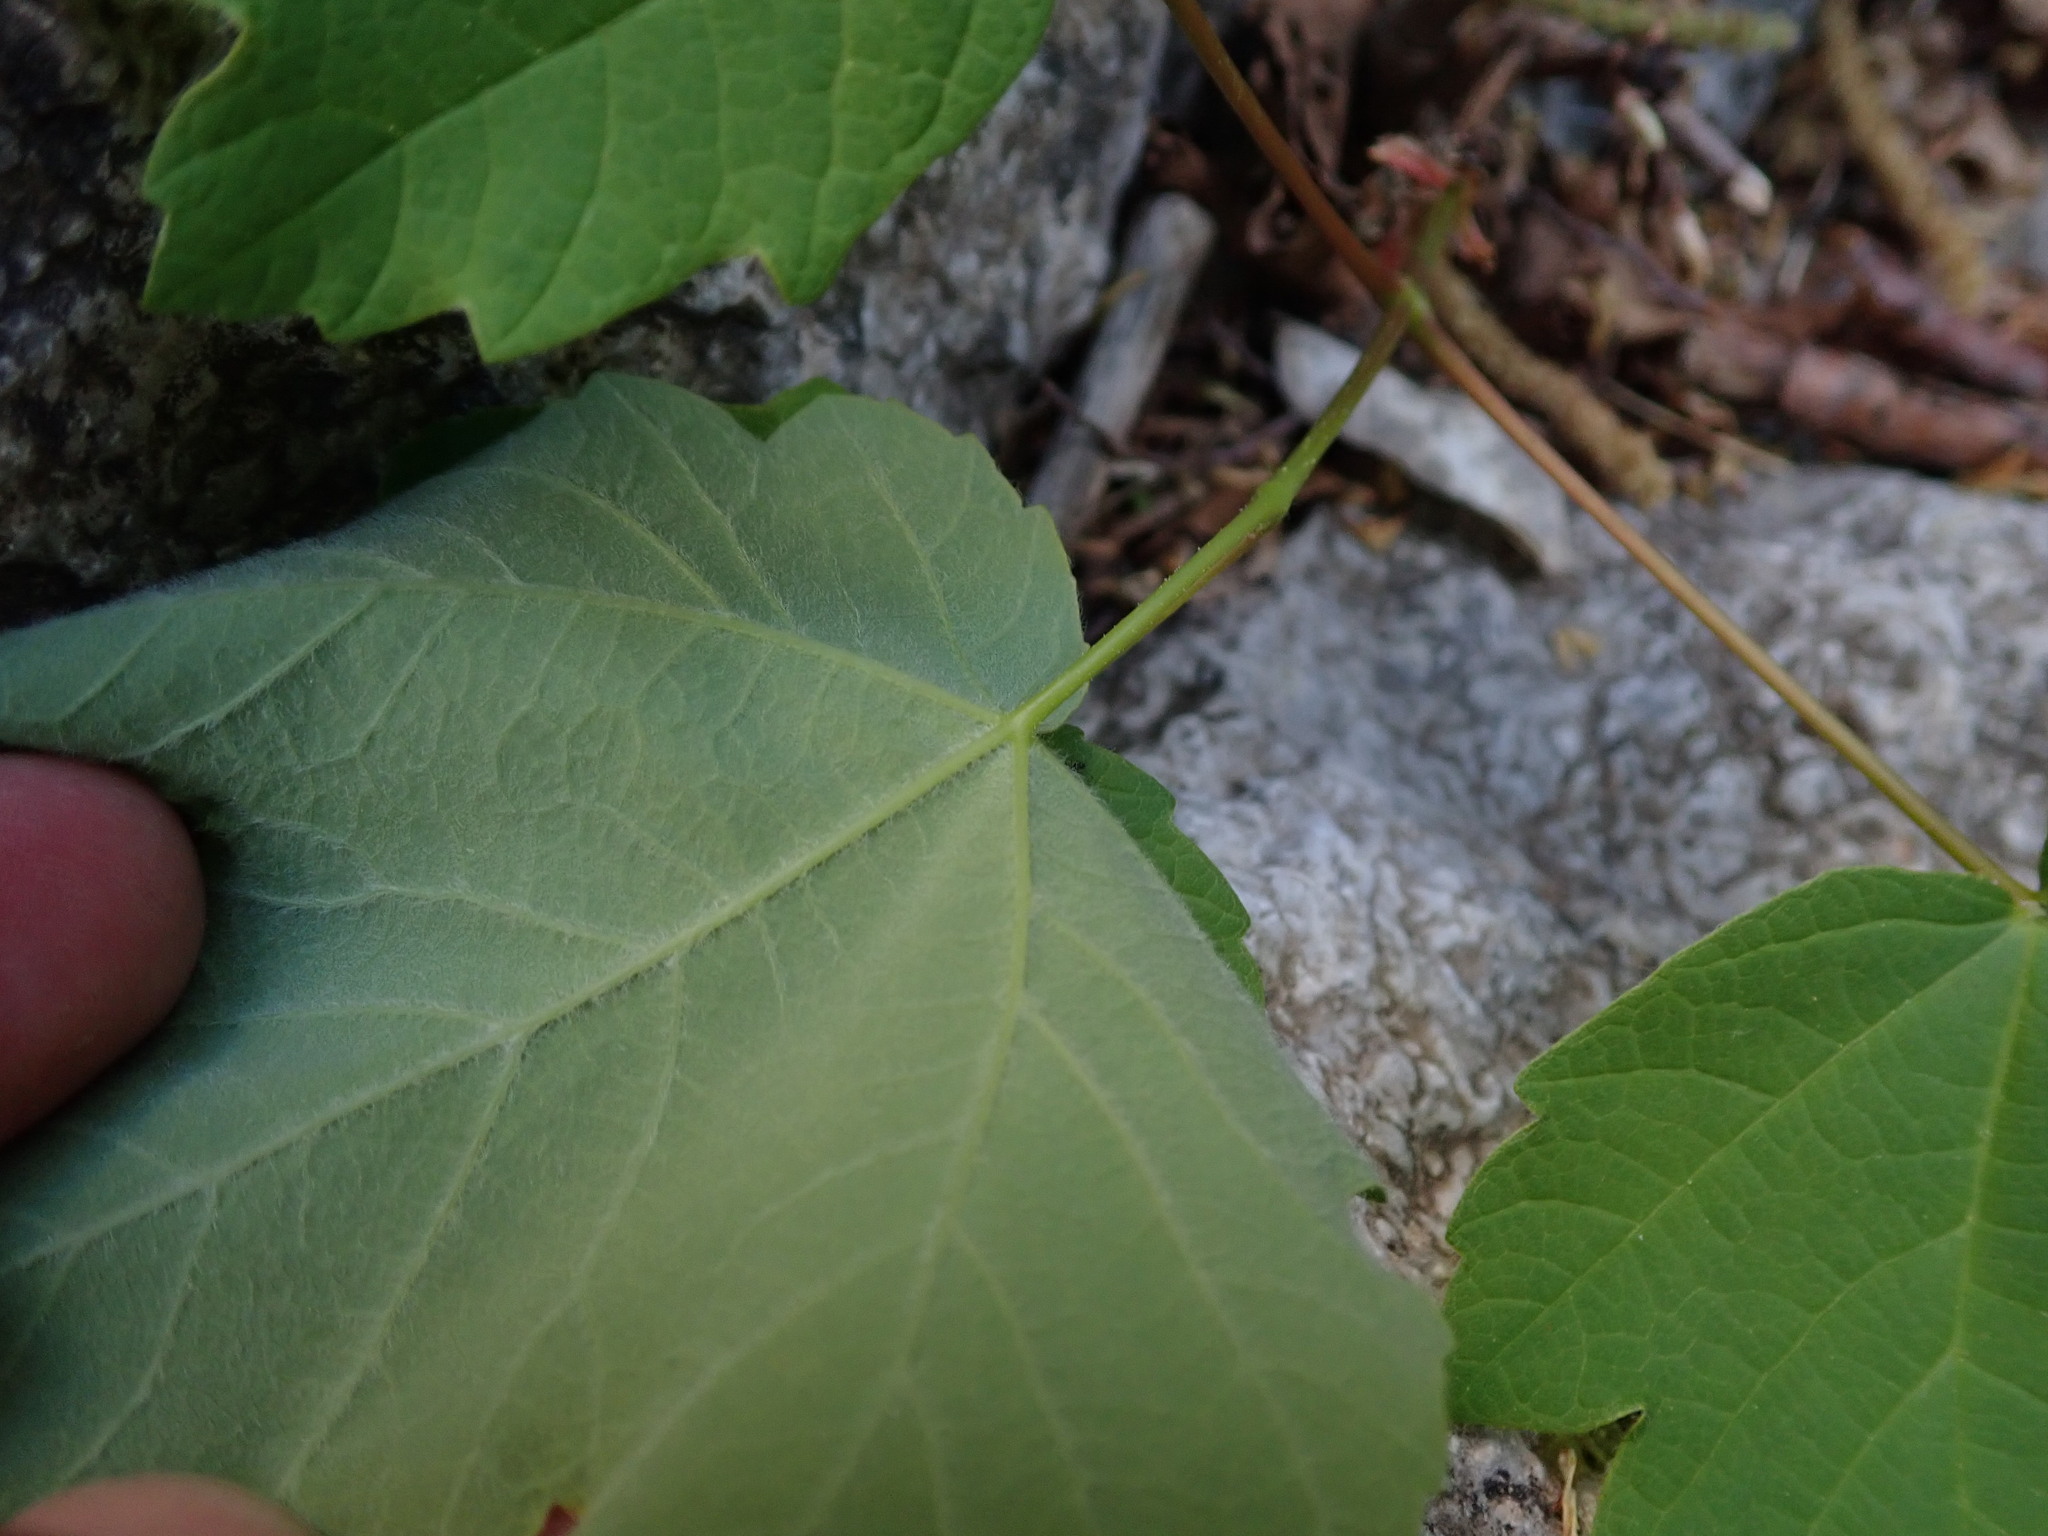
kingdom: Plantae
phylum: Tracheophyta
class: Magnoliopsida
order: Sapindales
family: Sapindaceae
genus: Acer
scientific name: Acer opalus
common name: Italian maple
